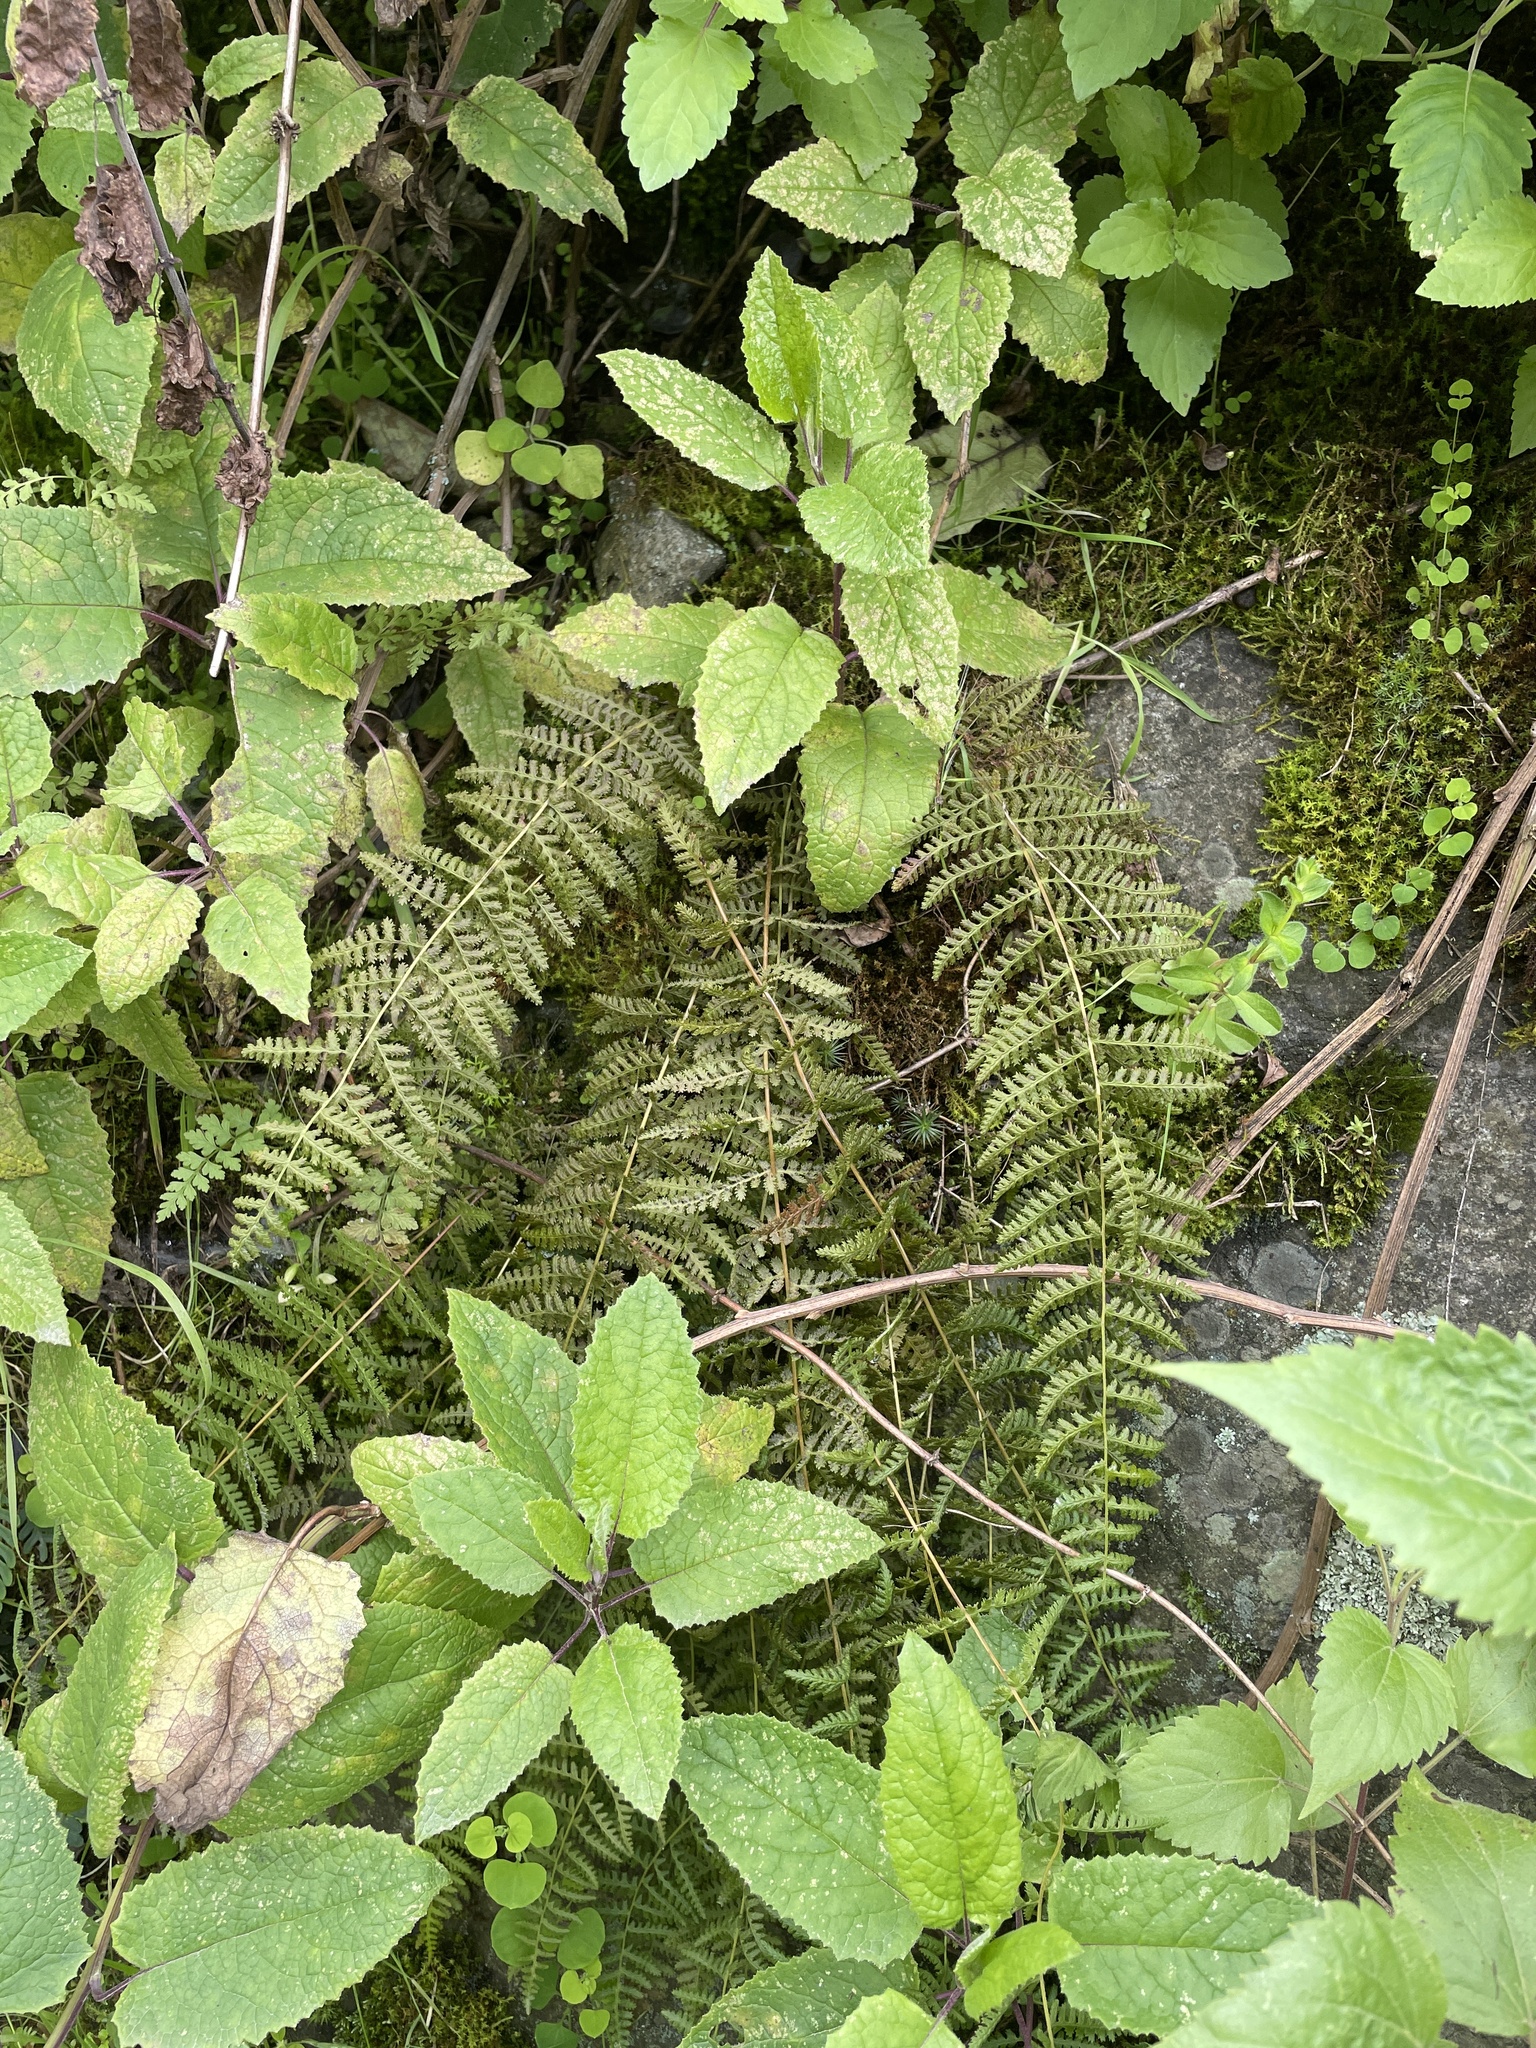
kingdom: Plantae
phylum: Tracheophyta
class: Polypodiopsida
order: Polypodiales
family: Woodsiaceae
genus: Physematium
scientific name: Physematium montevidense
